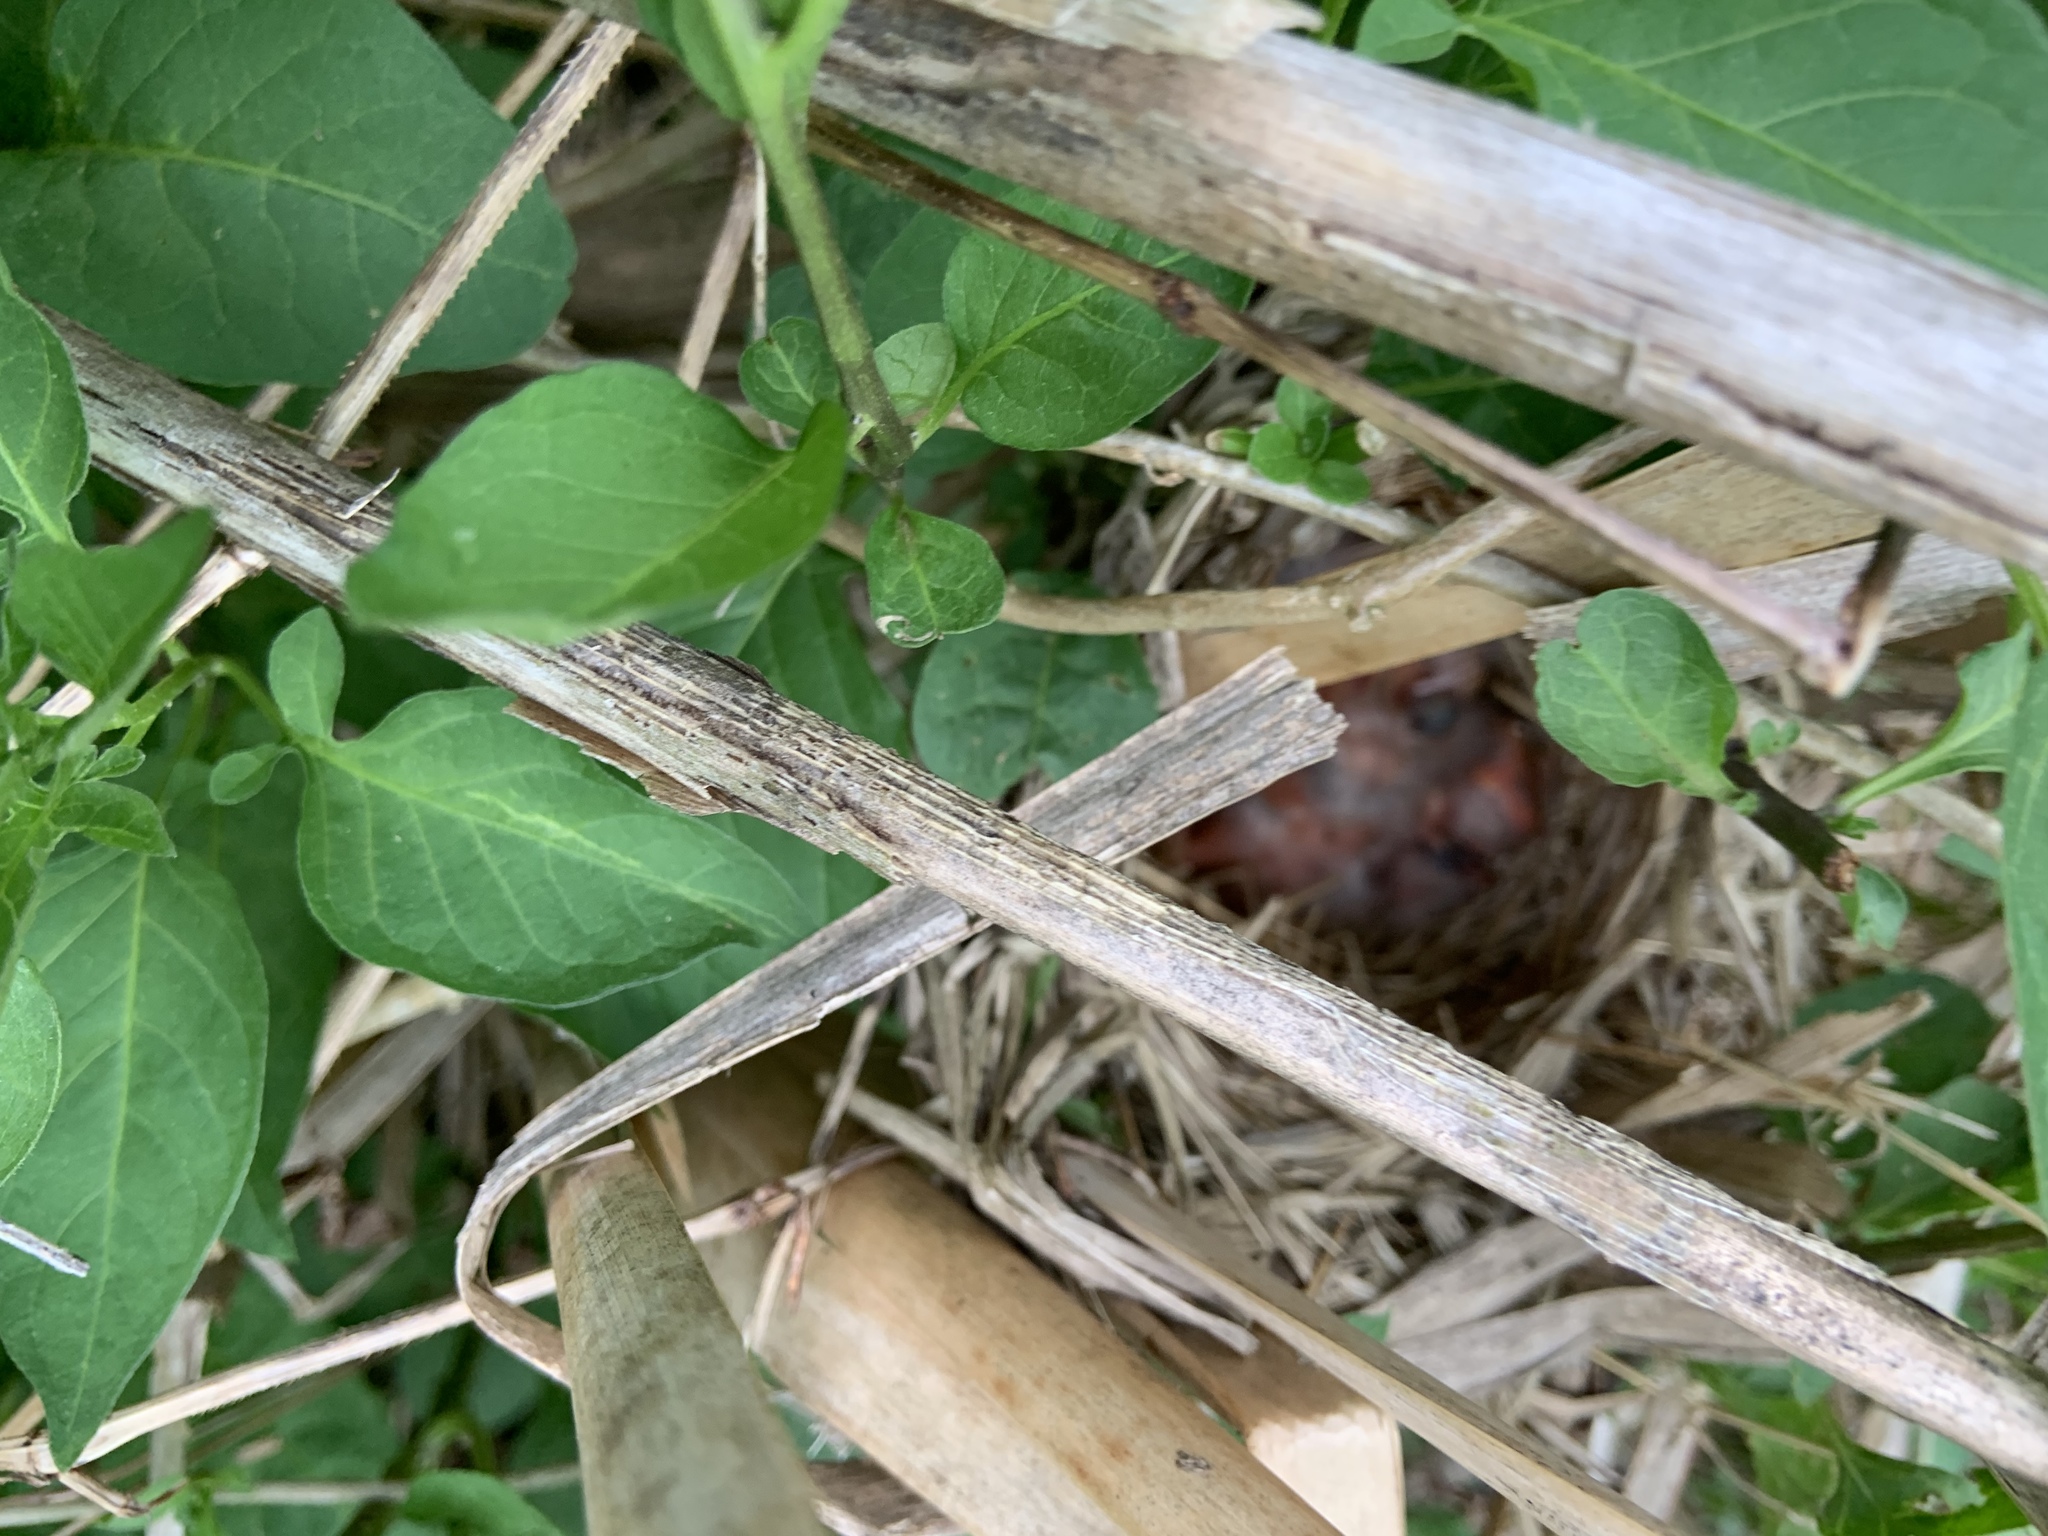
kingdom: Animalia
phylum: Chordata
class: Aves
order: Passeriformes
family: Icteridae
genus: Agelaius
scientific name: Agelaius phoeniceus
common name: Red-winged blackbird
